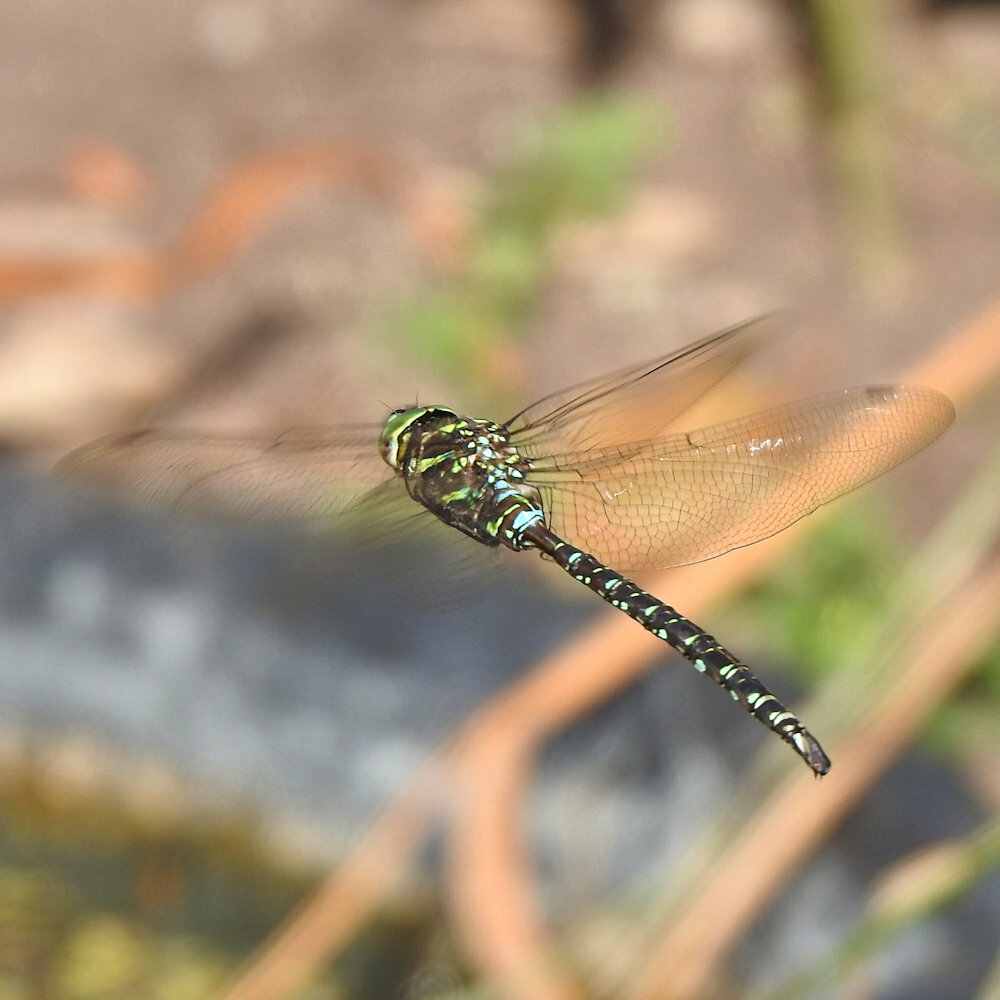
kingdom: Animalia
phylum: Arthropoda
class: Insecta
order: Odonata
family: Aeshnidae
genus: Aeshna
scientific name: Aeshna umbrosa
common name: Shadow darner
